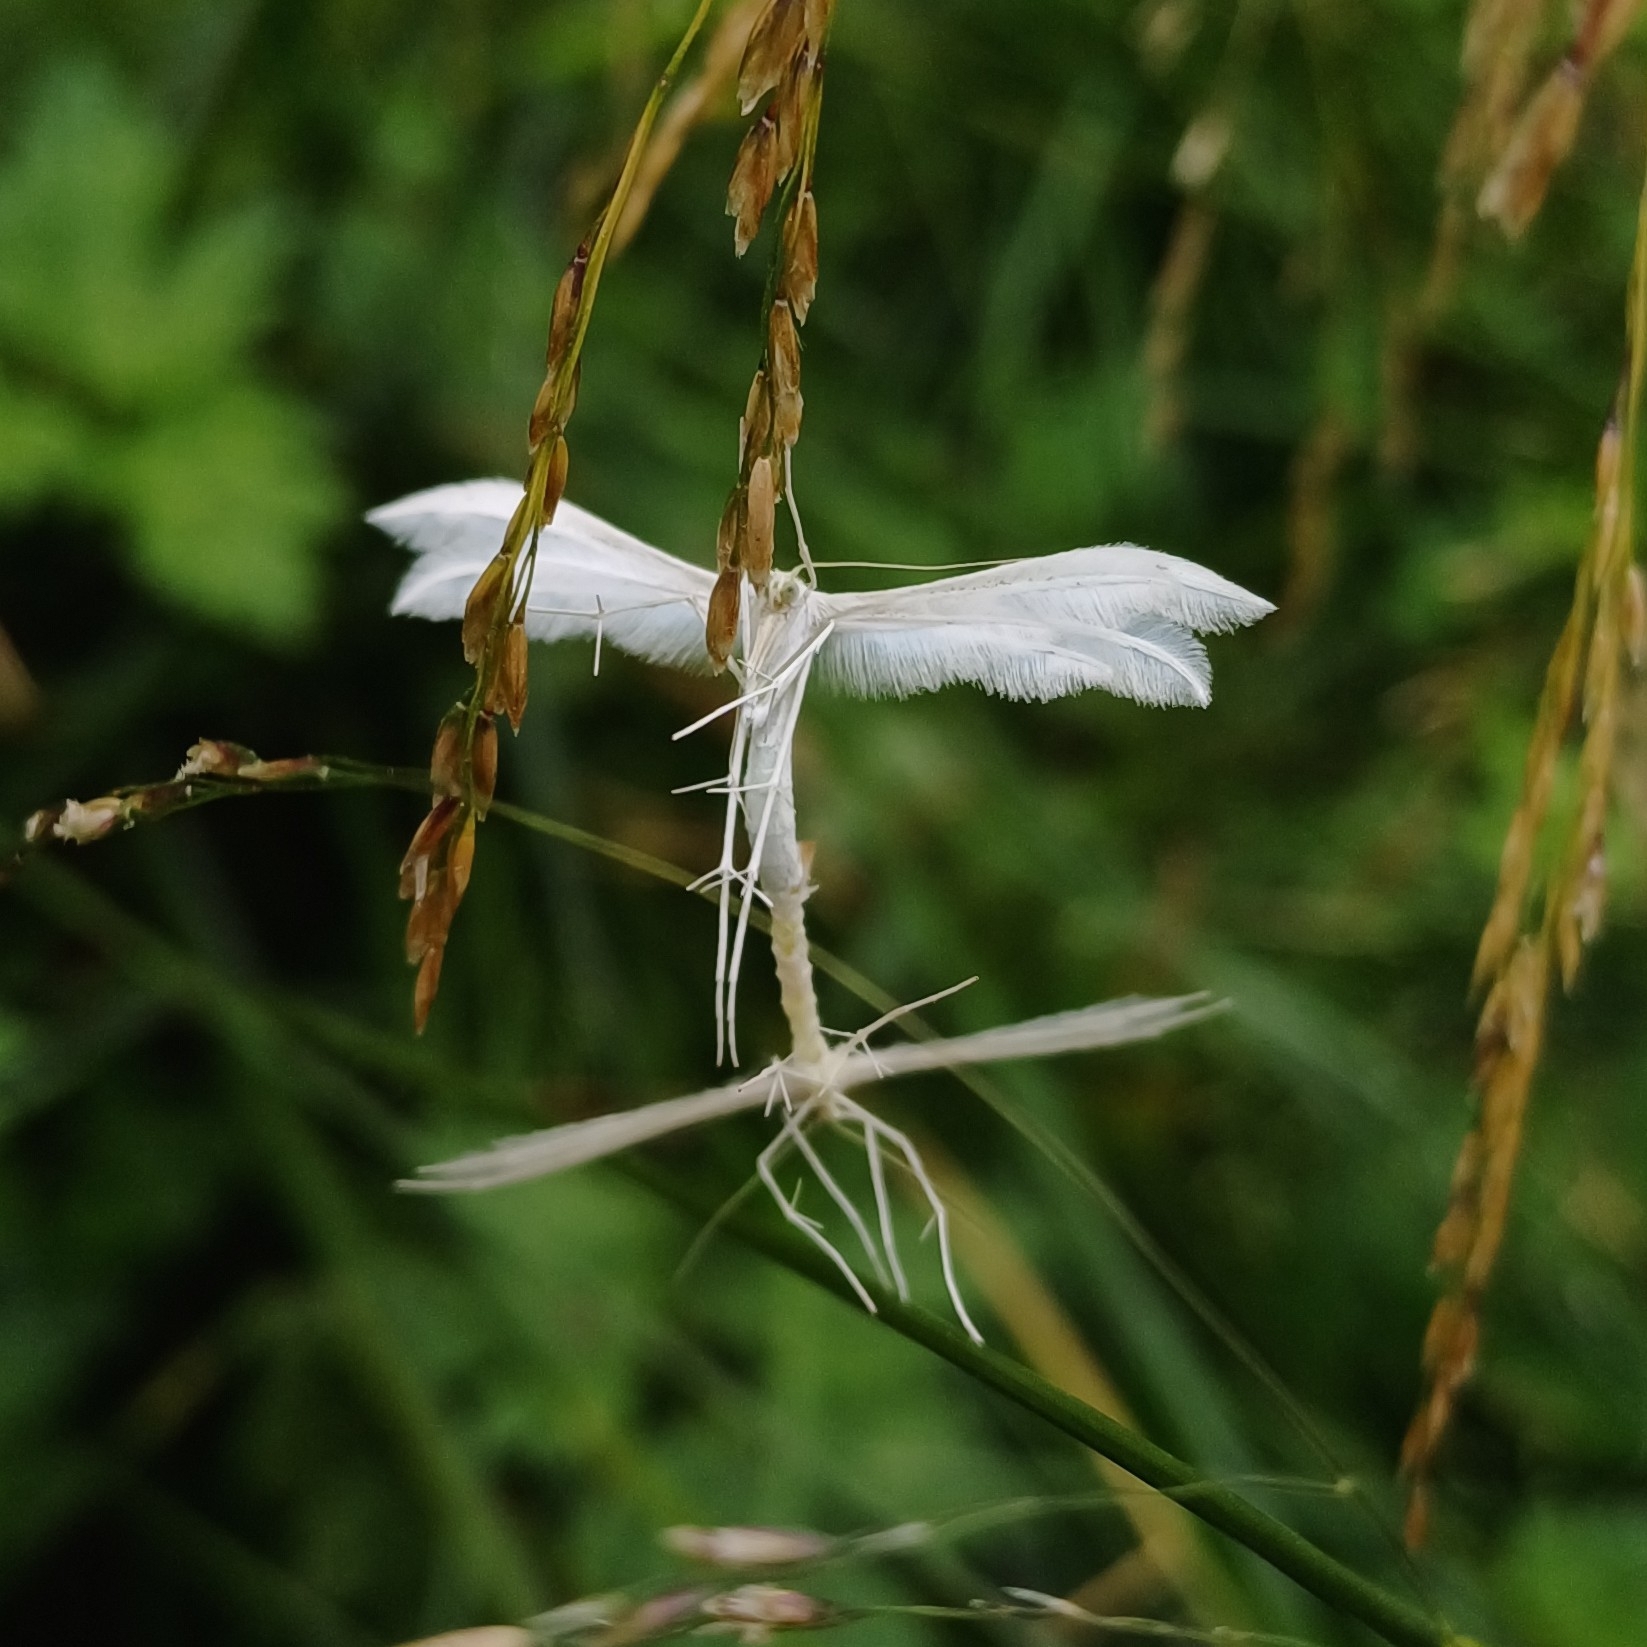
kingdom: Animalia
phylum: Arthropoda
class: Insecta
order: Lepidoptera
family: Pterophoridae
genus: Pterophorus
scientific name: Pterophorus pentadactyla
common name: White plume moth
